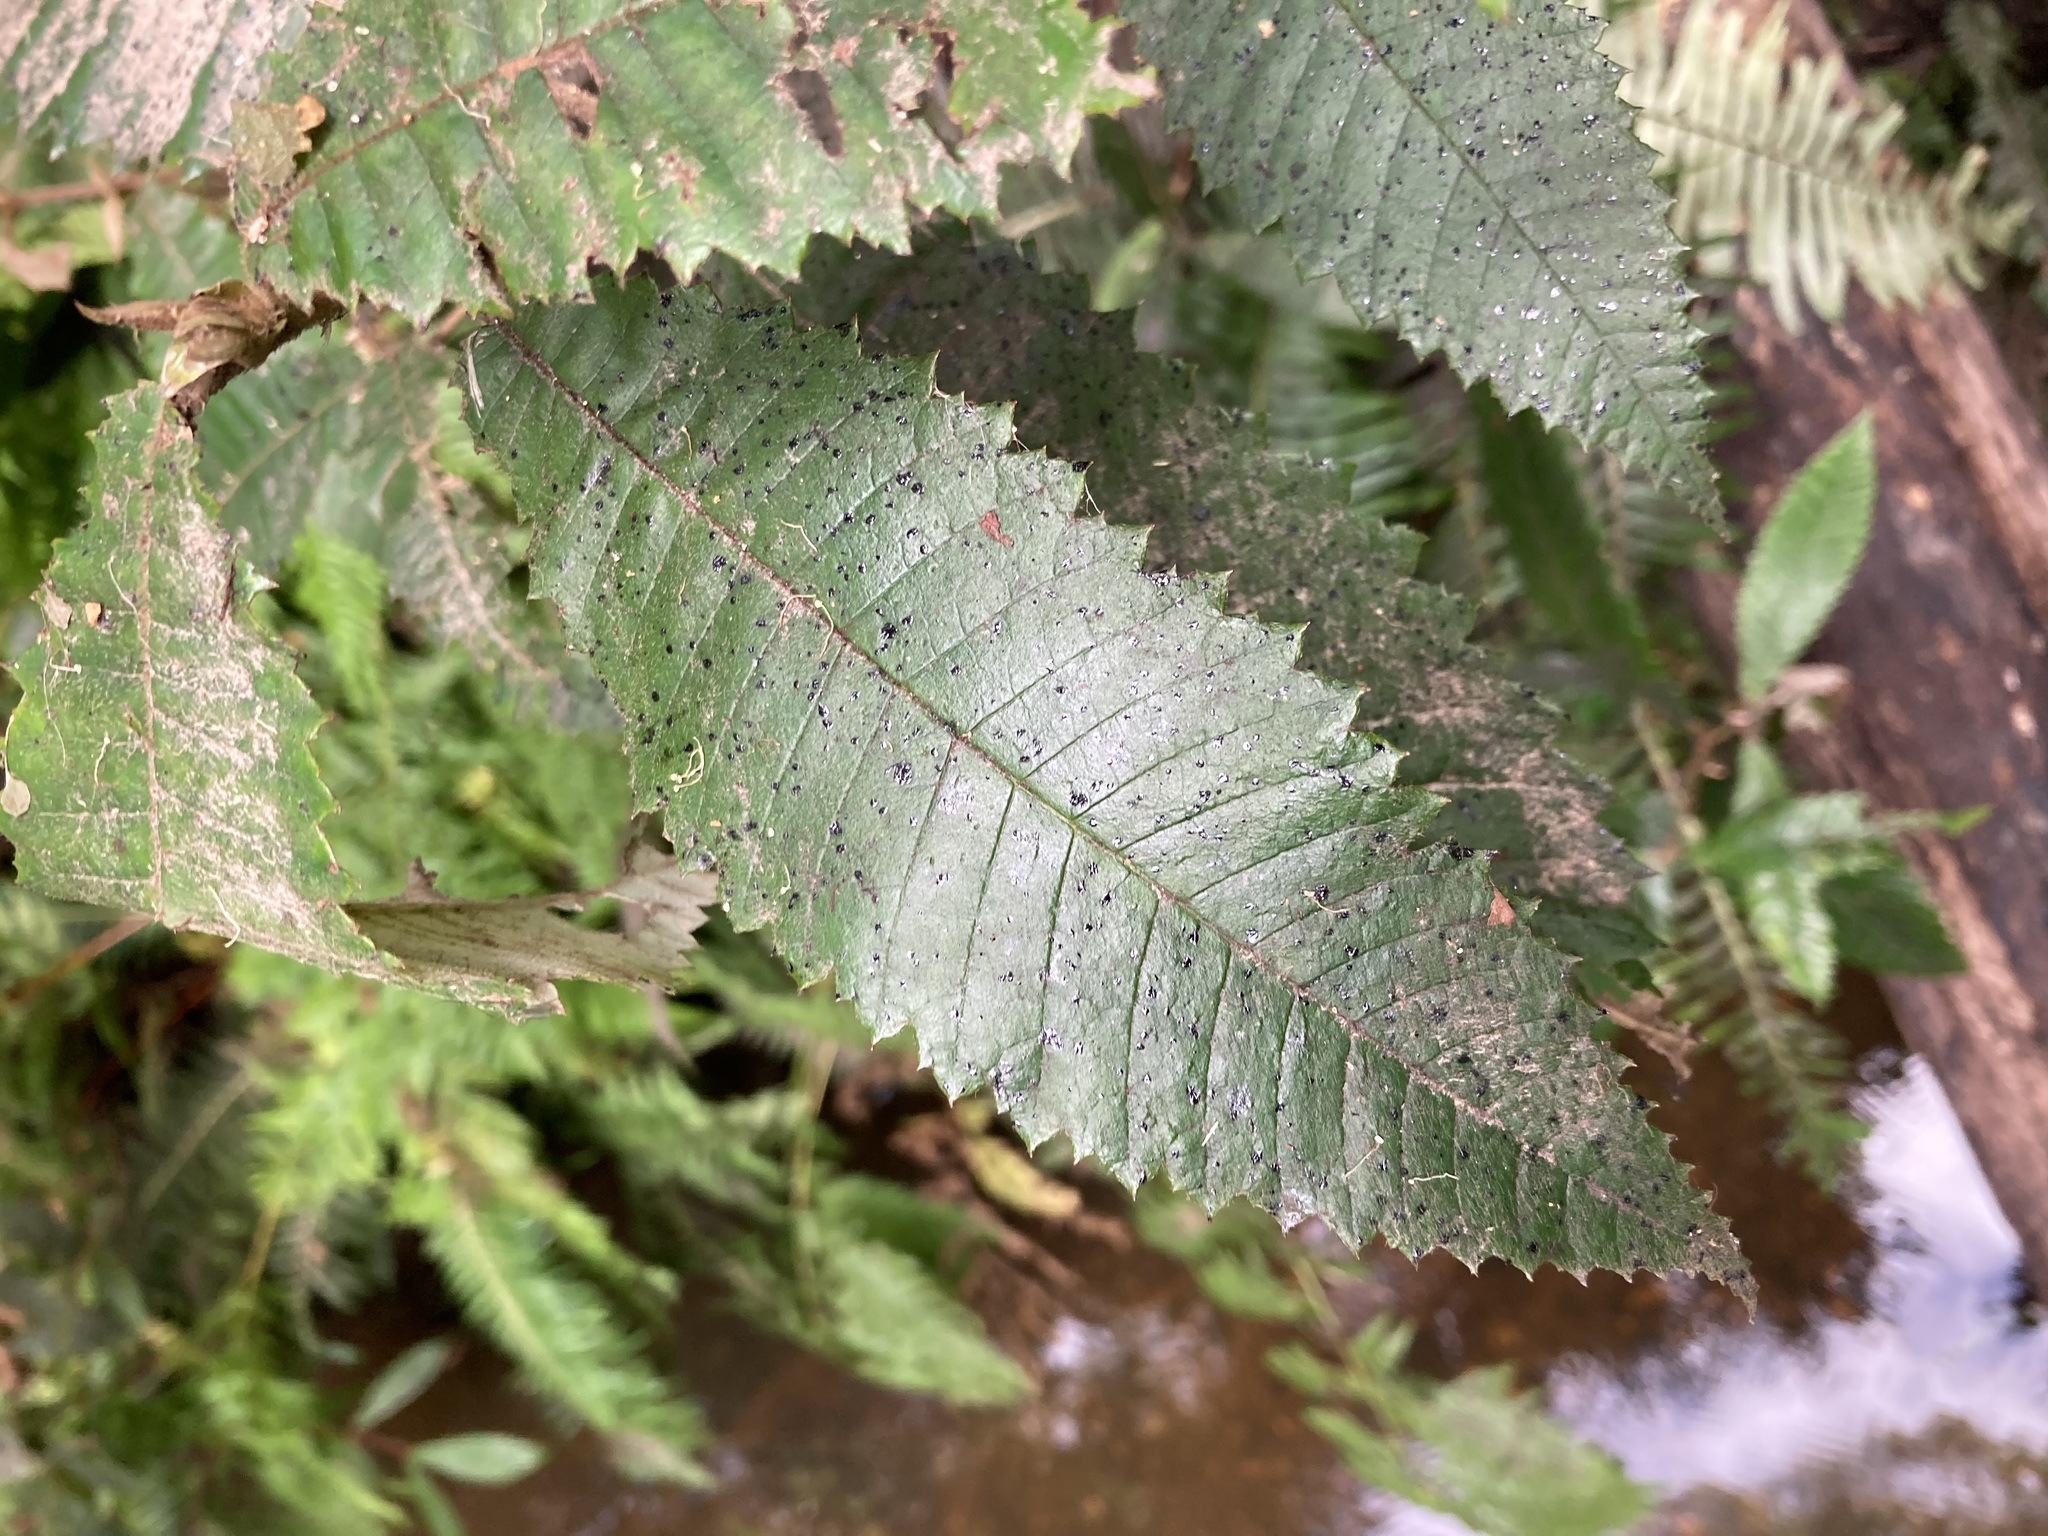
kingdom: Plantae
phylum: Tracheophyta
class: Magnoliopsida
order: Oxalidales
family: Cunoniaceae
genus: Callicoma
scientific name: Callicoma serratifolia
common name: Black wattle
